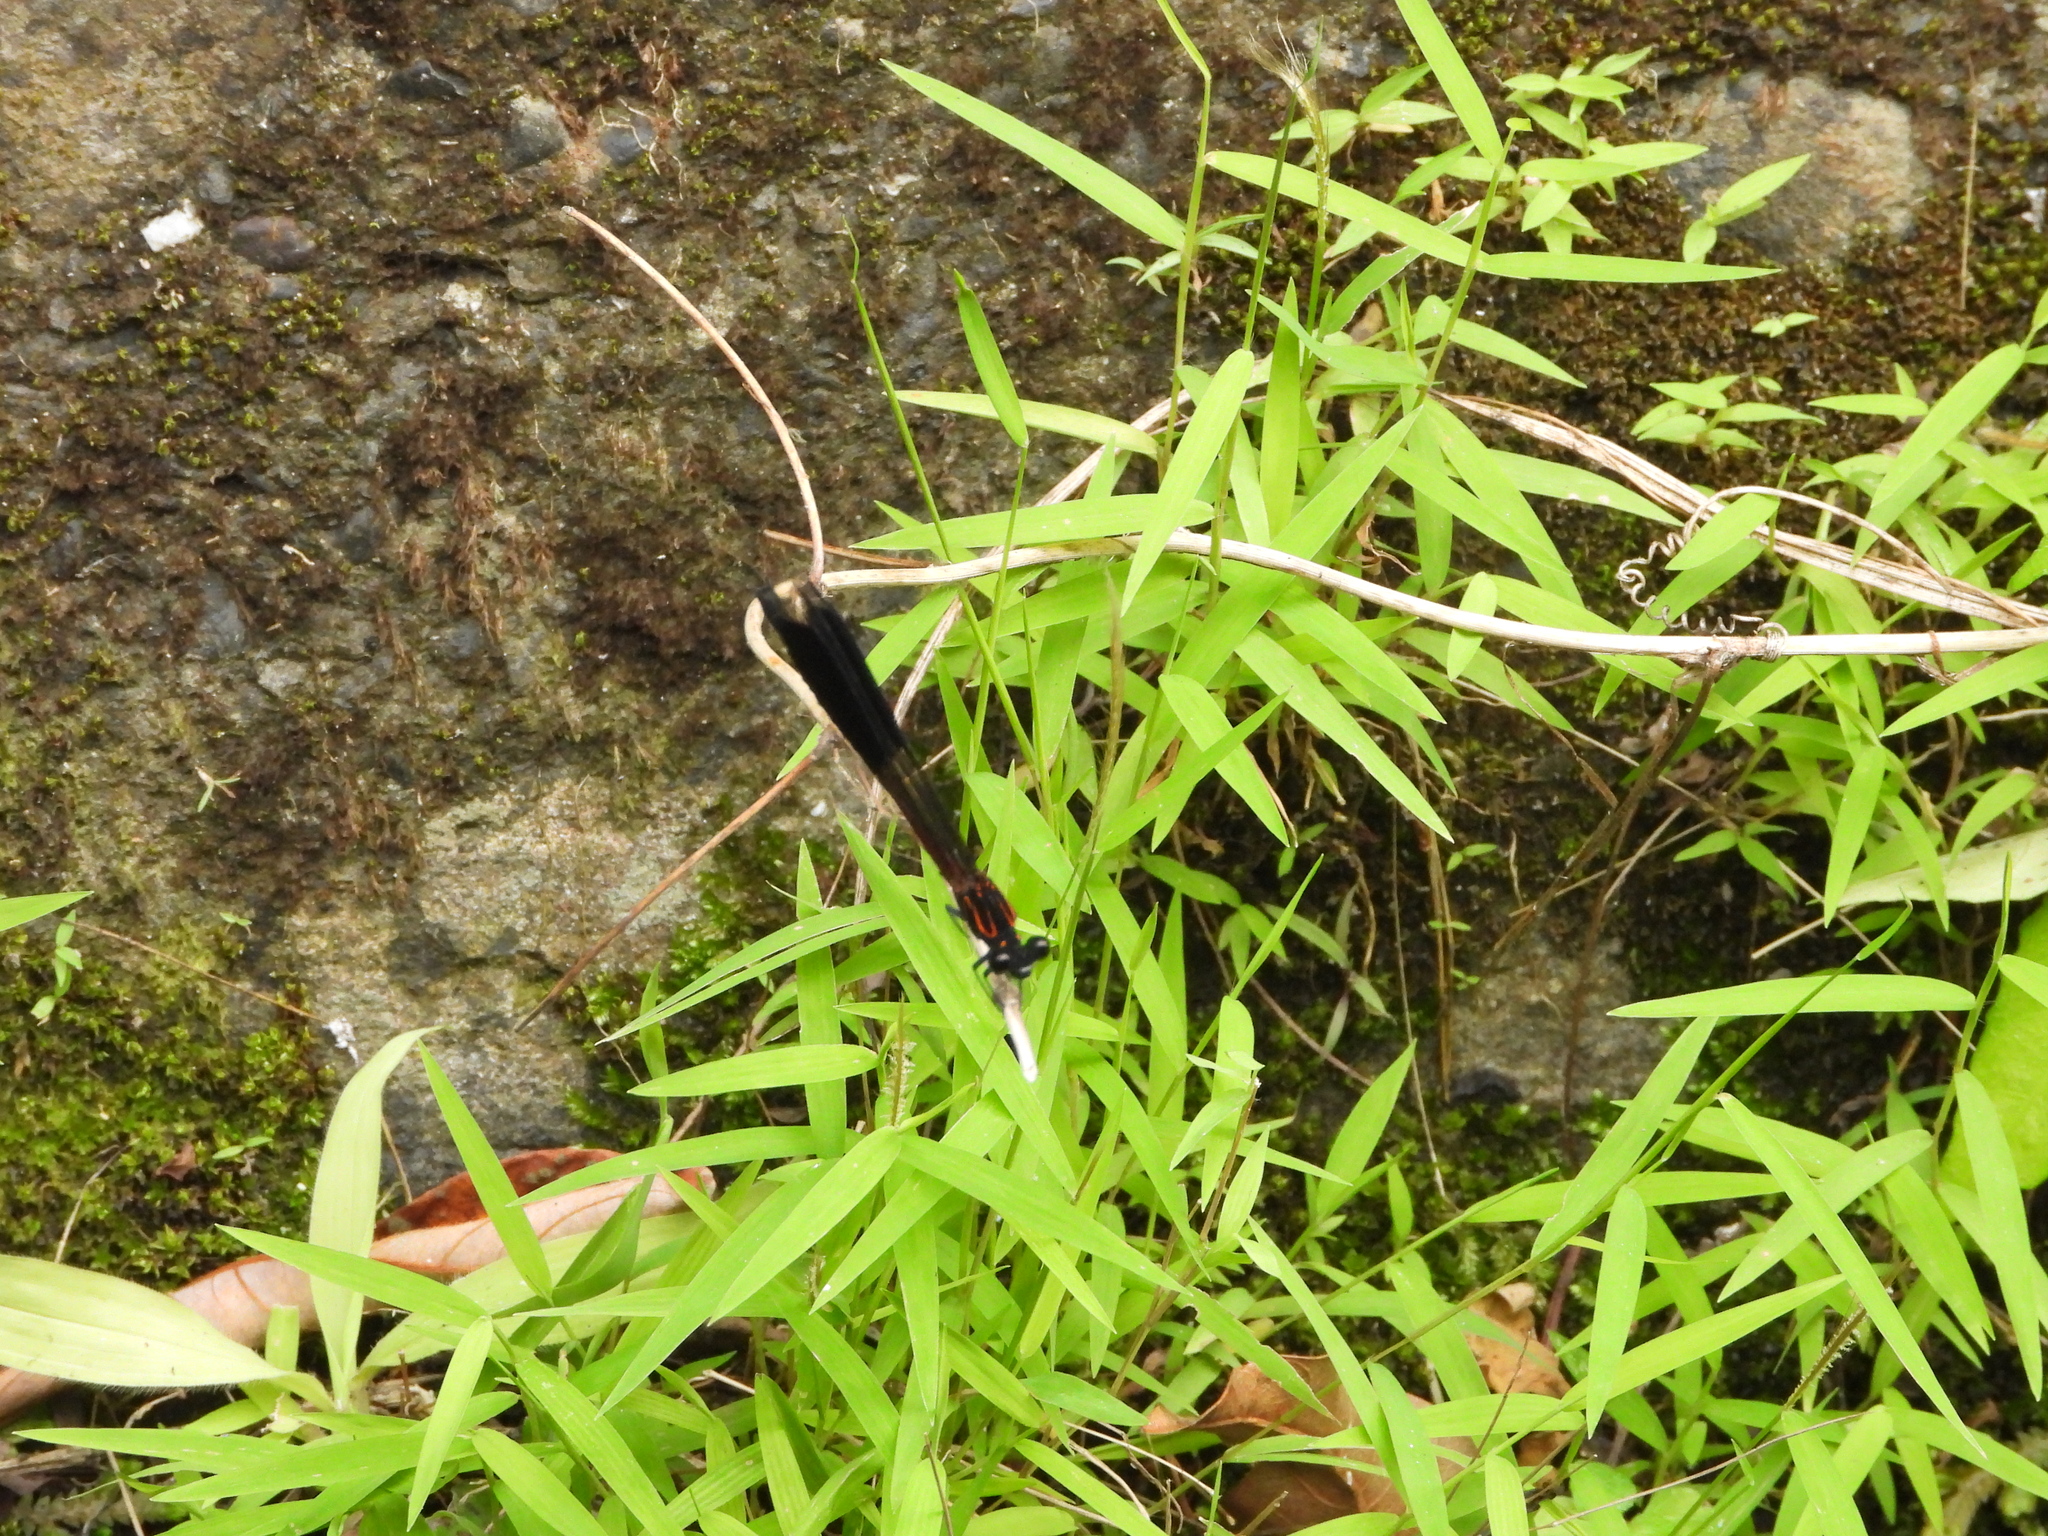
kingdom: Animalia
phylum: Arthropoda
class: Insecta
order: Odonata
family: Euphaeidae
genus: Euphaea
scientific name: Euphaea formosa
